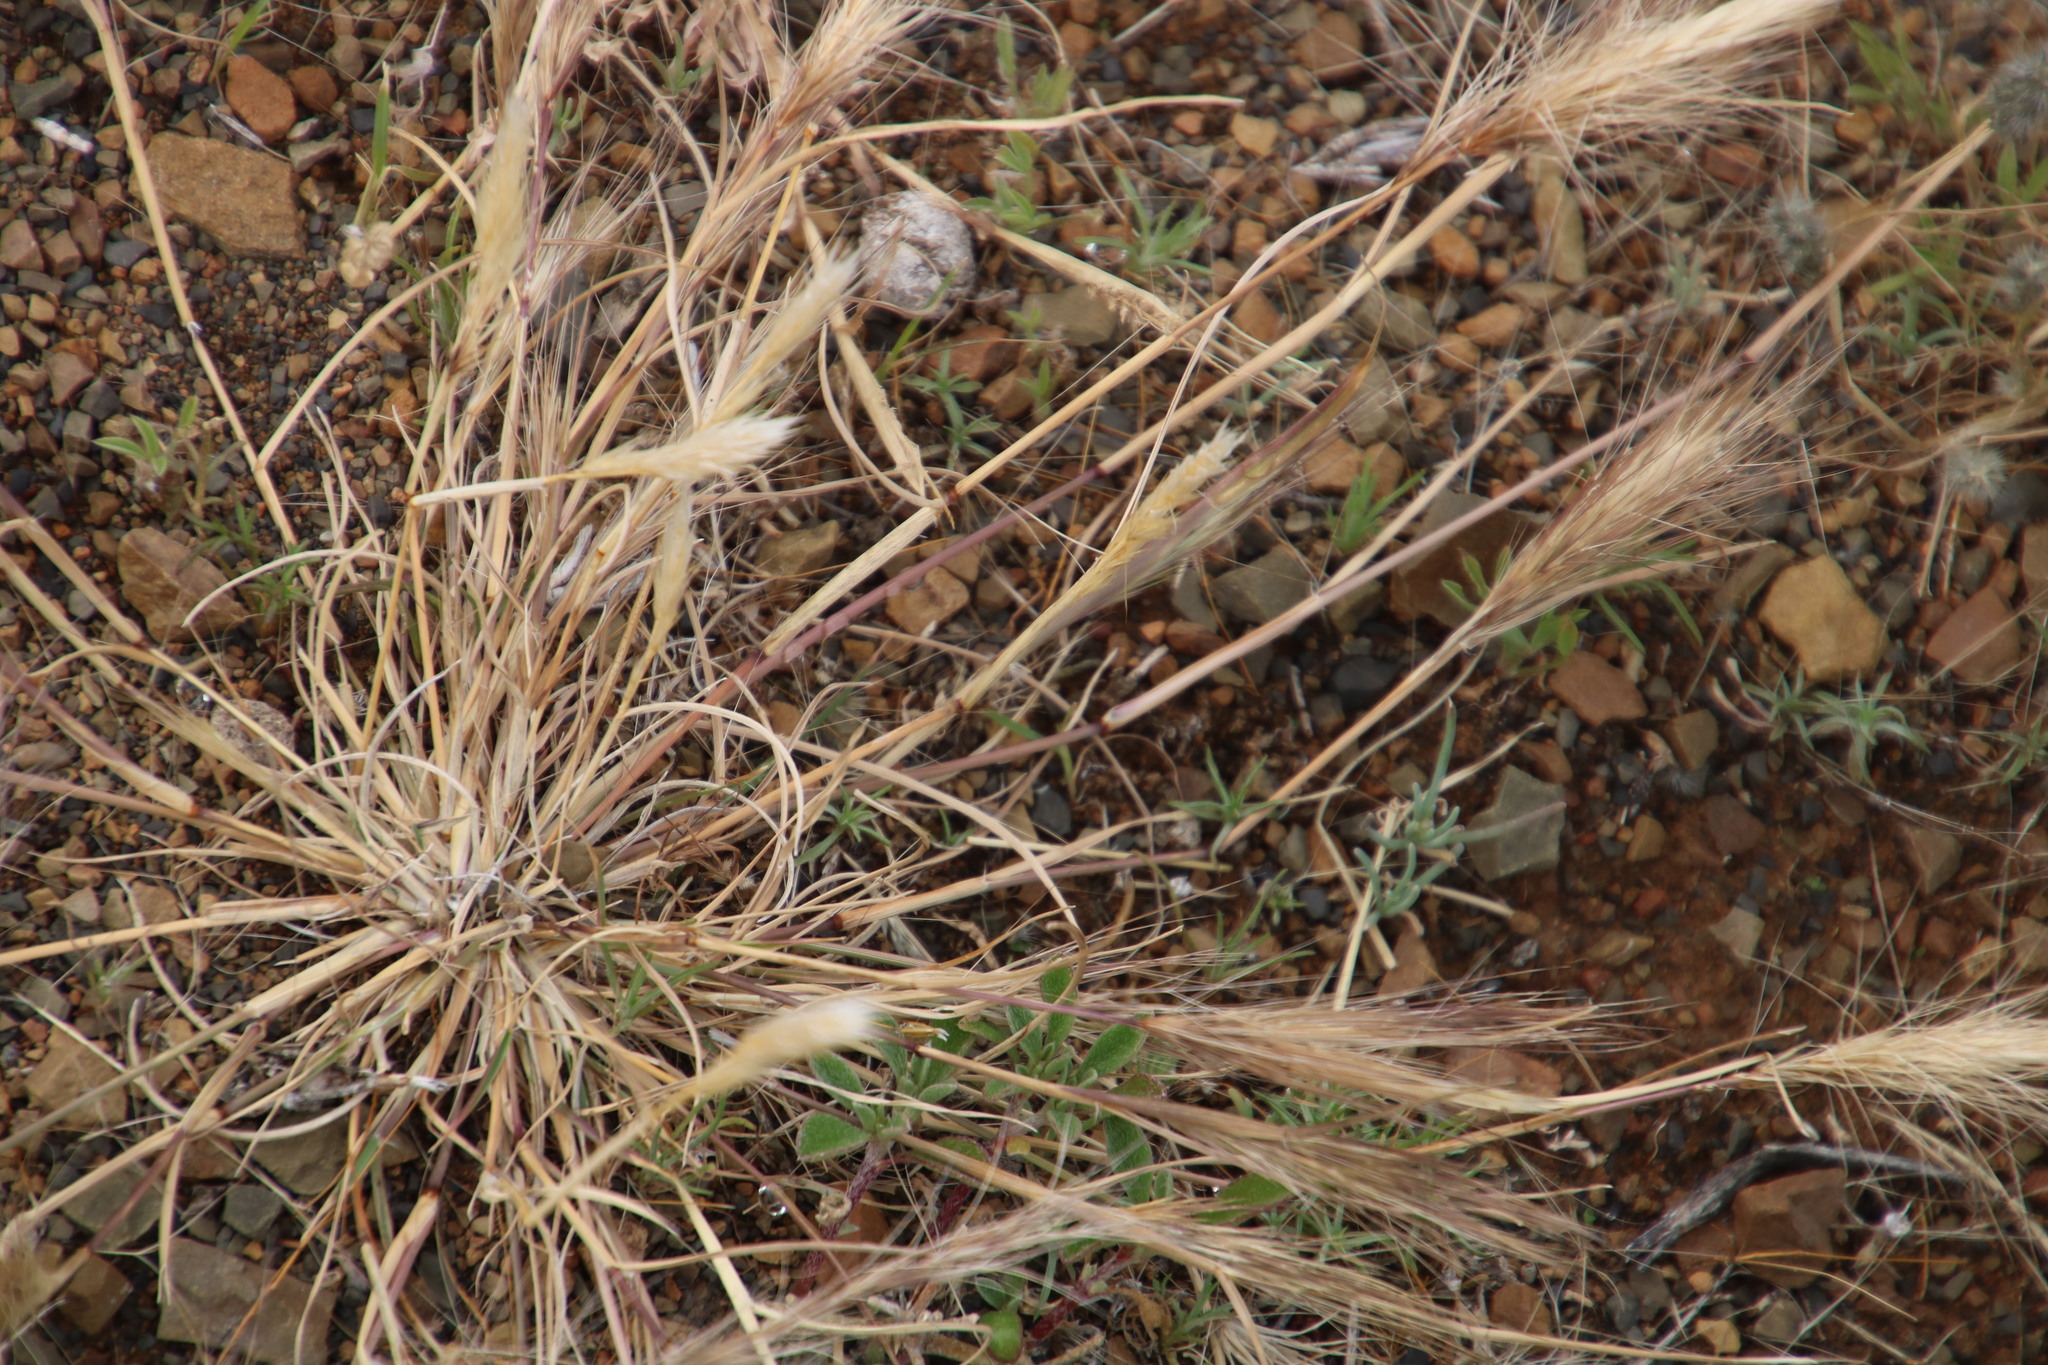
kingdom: Plantae
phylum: Tracheophyta
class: Liliopsida
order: Poales
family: Poaceae
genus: Aristida
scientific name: Aristida congesta
